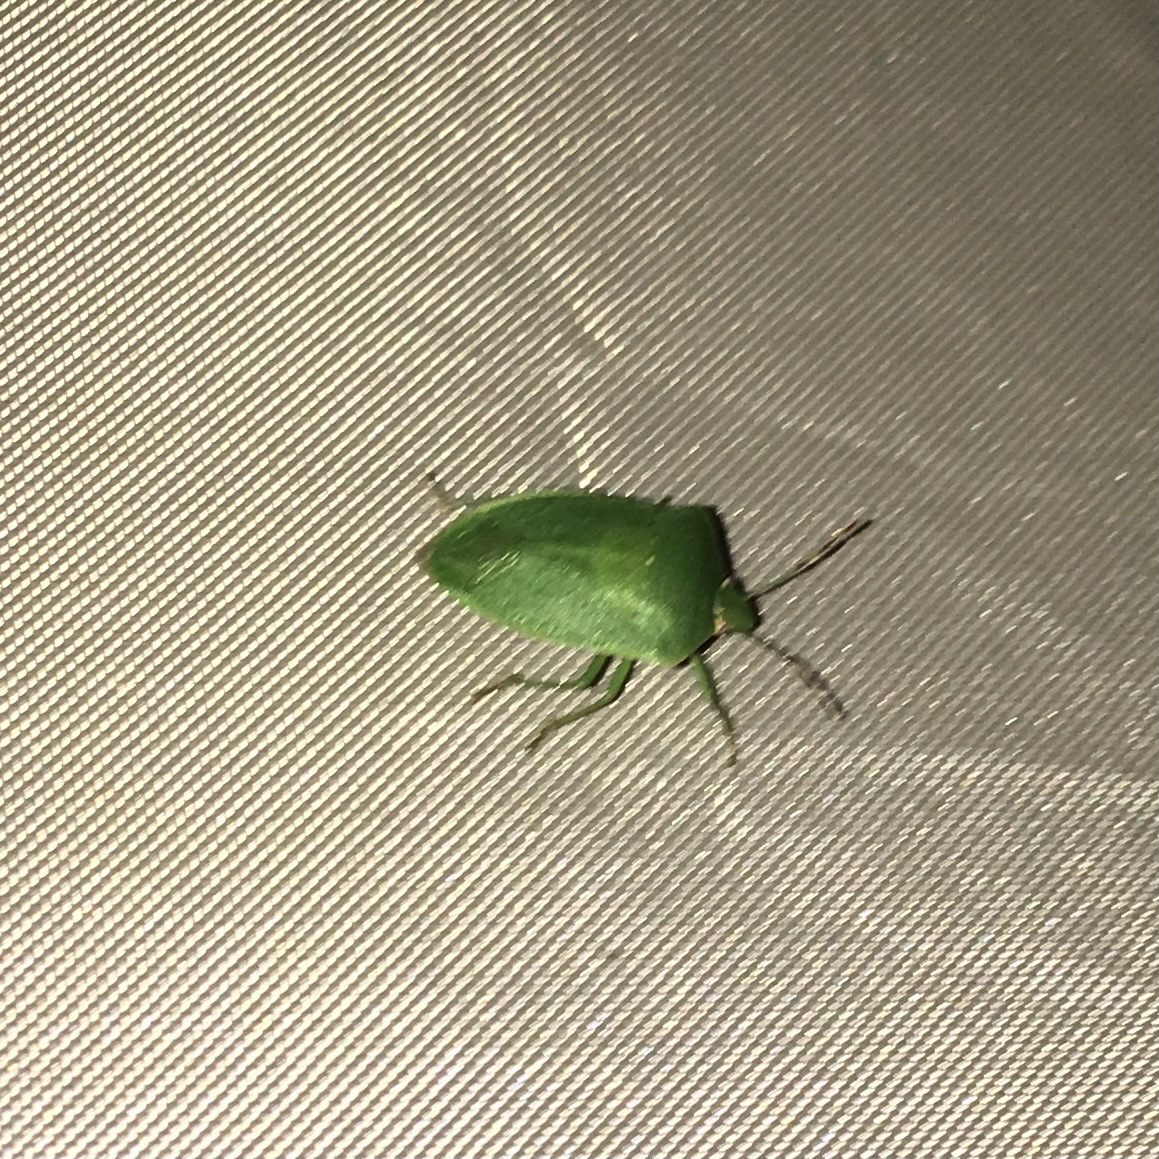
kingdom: Animalia
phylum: Arthropoda
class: Insecta
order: Hemiptera
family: Pentatomidae
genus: Nezara
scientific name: Nezara viridula
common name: Southern green stink bug
